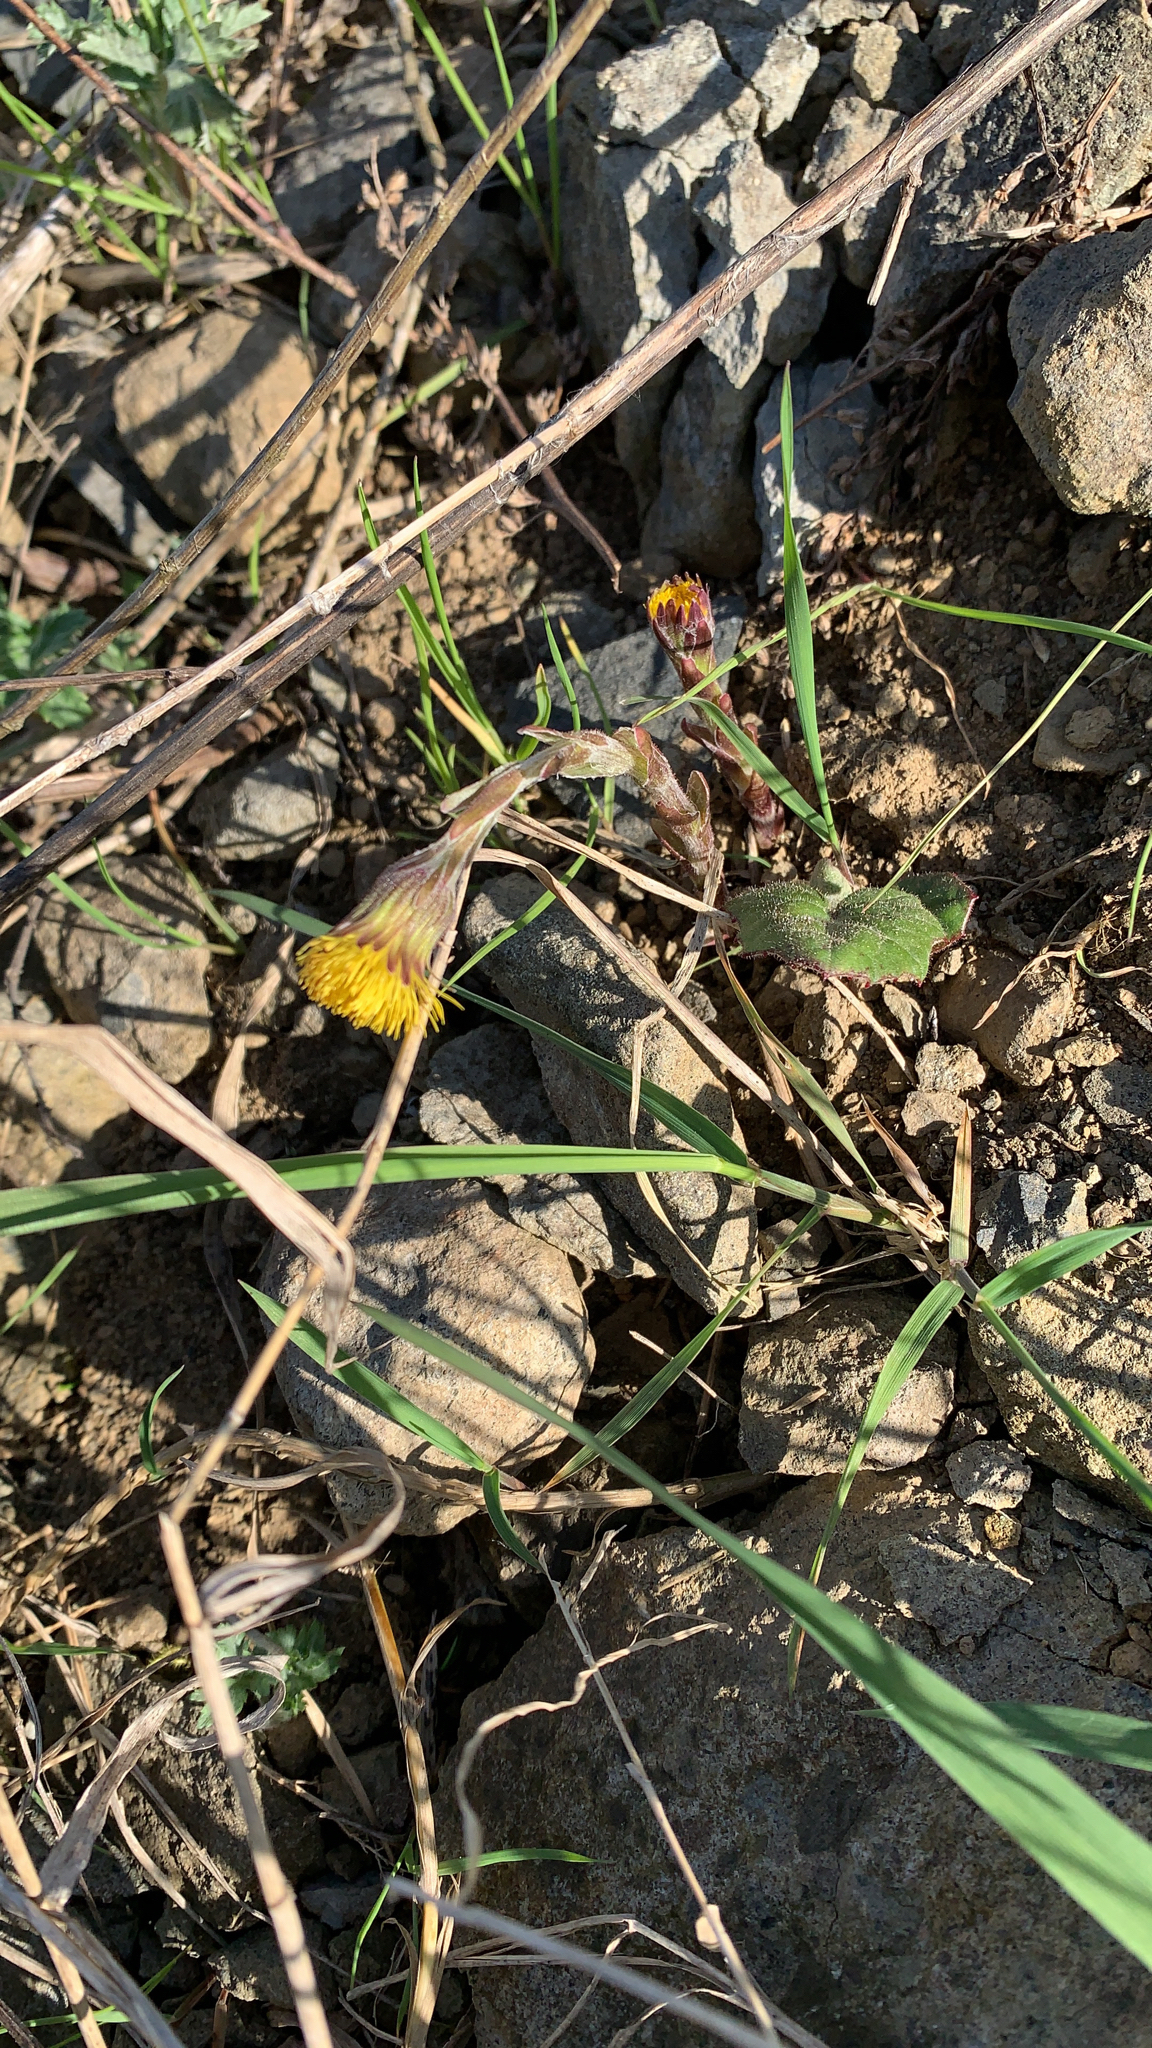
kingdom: Plantae
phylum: Tracheophyta
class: Magnoliopsida
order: Asterales
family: Asteraceae
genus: Tussilago
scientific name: Tussilago farfara
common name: Coltsfoot
